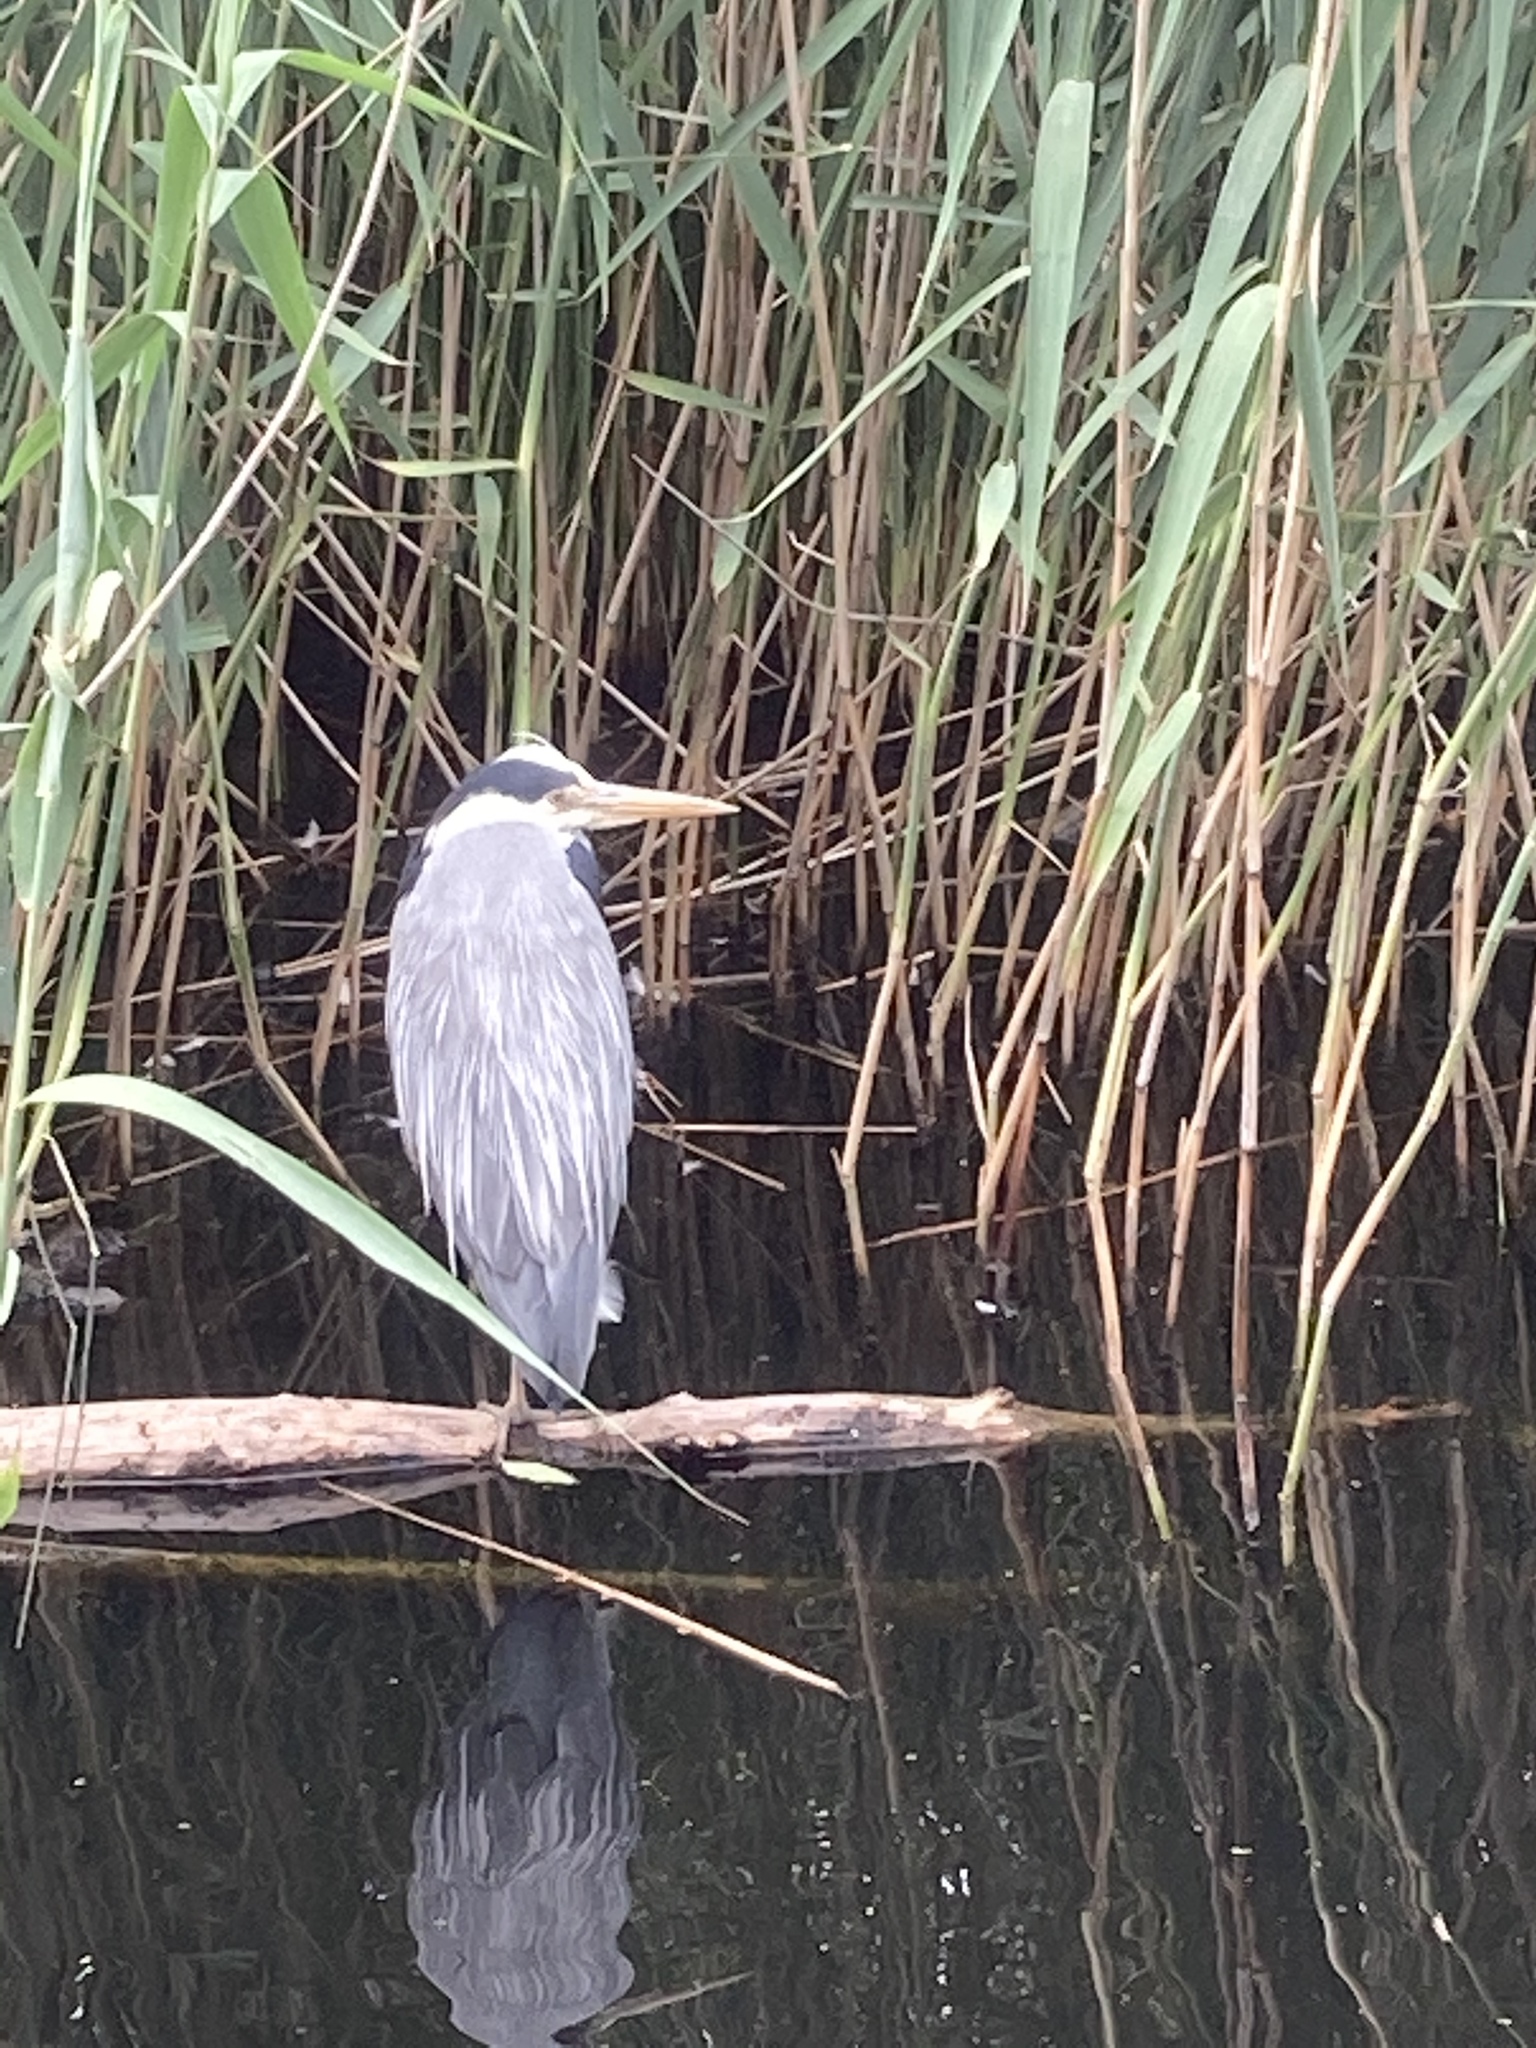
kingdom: Animalia
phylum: Chordata
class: Aves
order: Pelecaniformes
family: Ardeidae
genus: Ardea
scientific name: Ardea cinerea
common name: Grey heron
